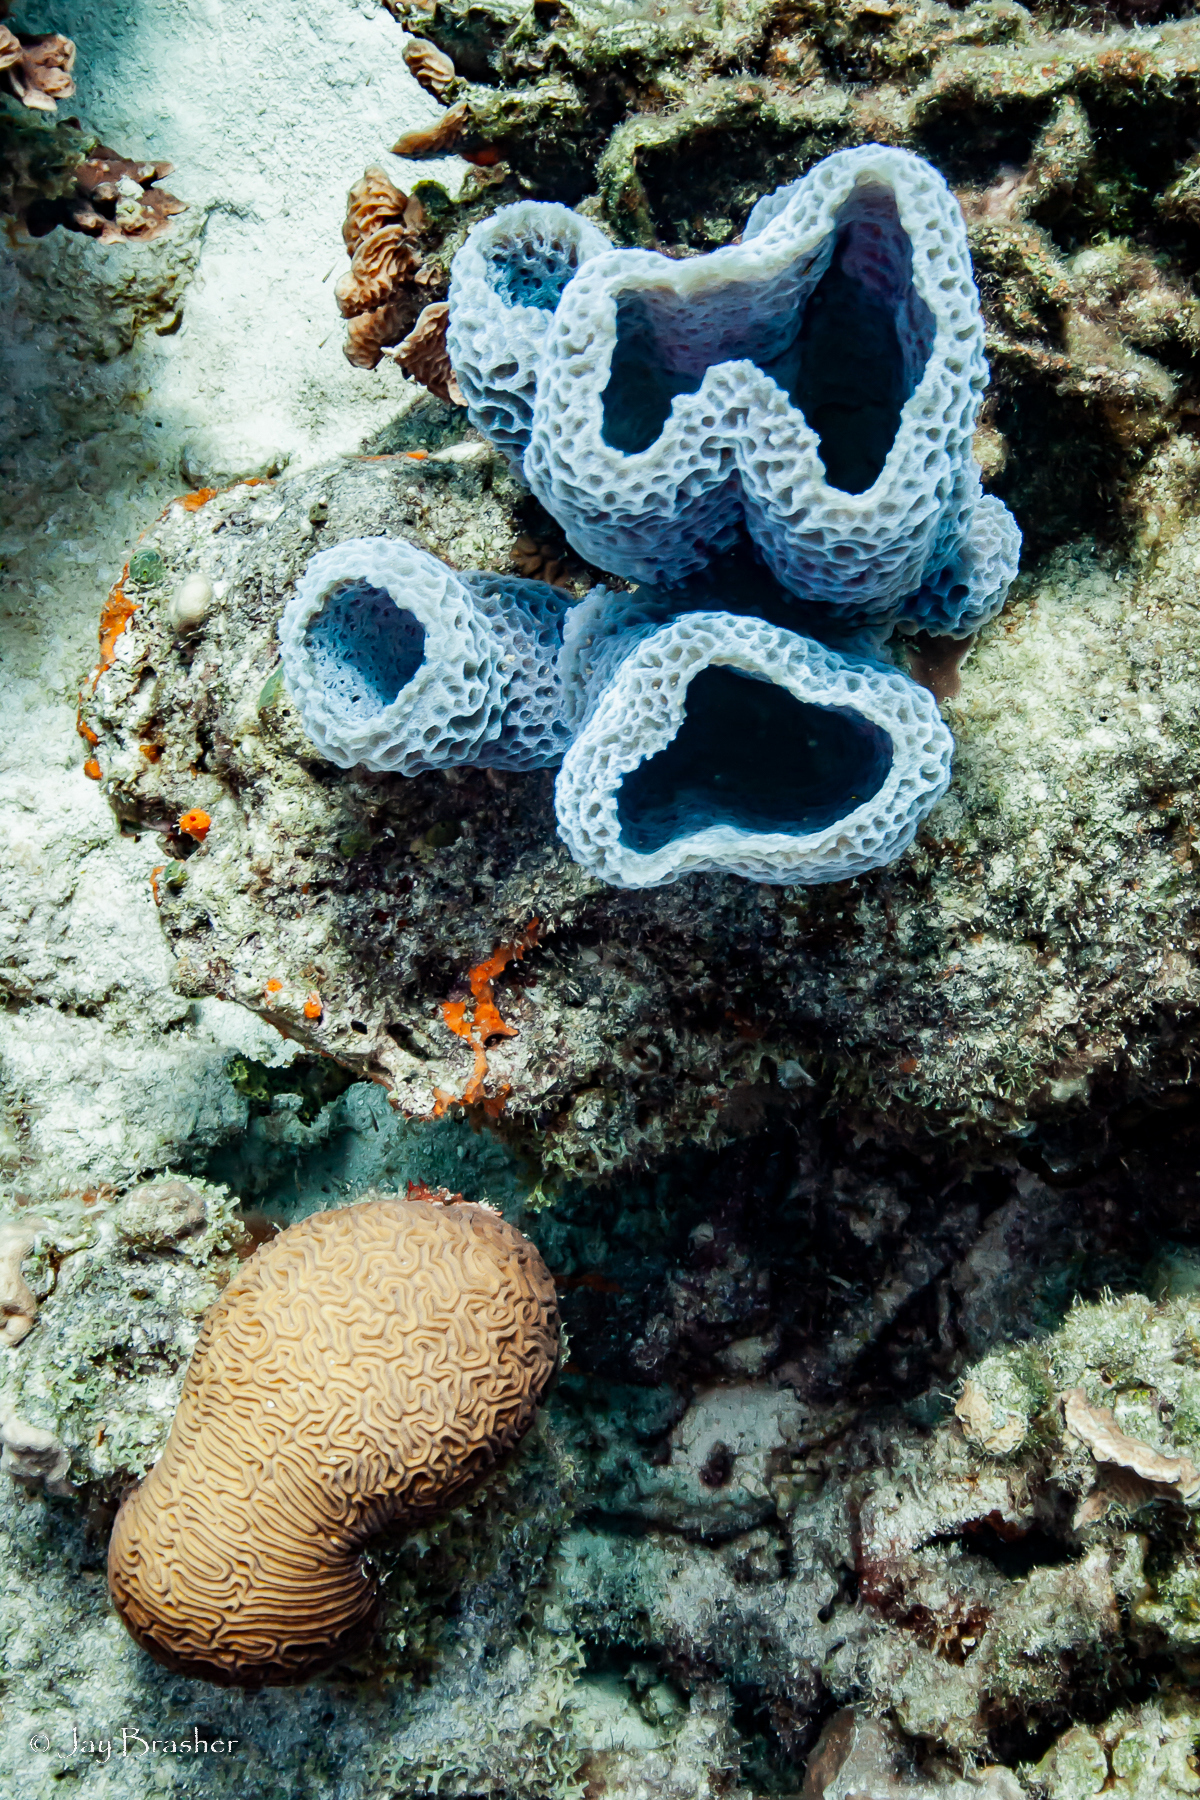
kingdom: Animalia
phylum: Porifera
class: Demospongiae
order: Haplosclerida
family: Callyspongiidae
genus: Callyspongia
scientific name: Callyspongia plicifera
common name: Azure vase sponge
